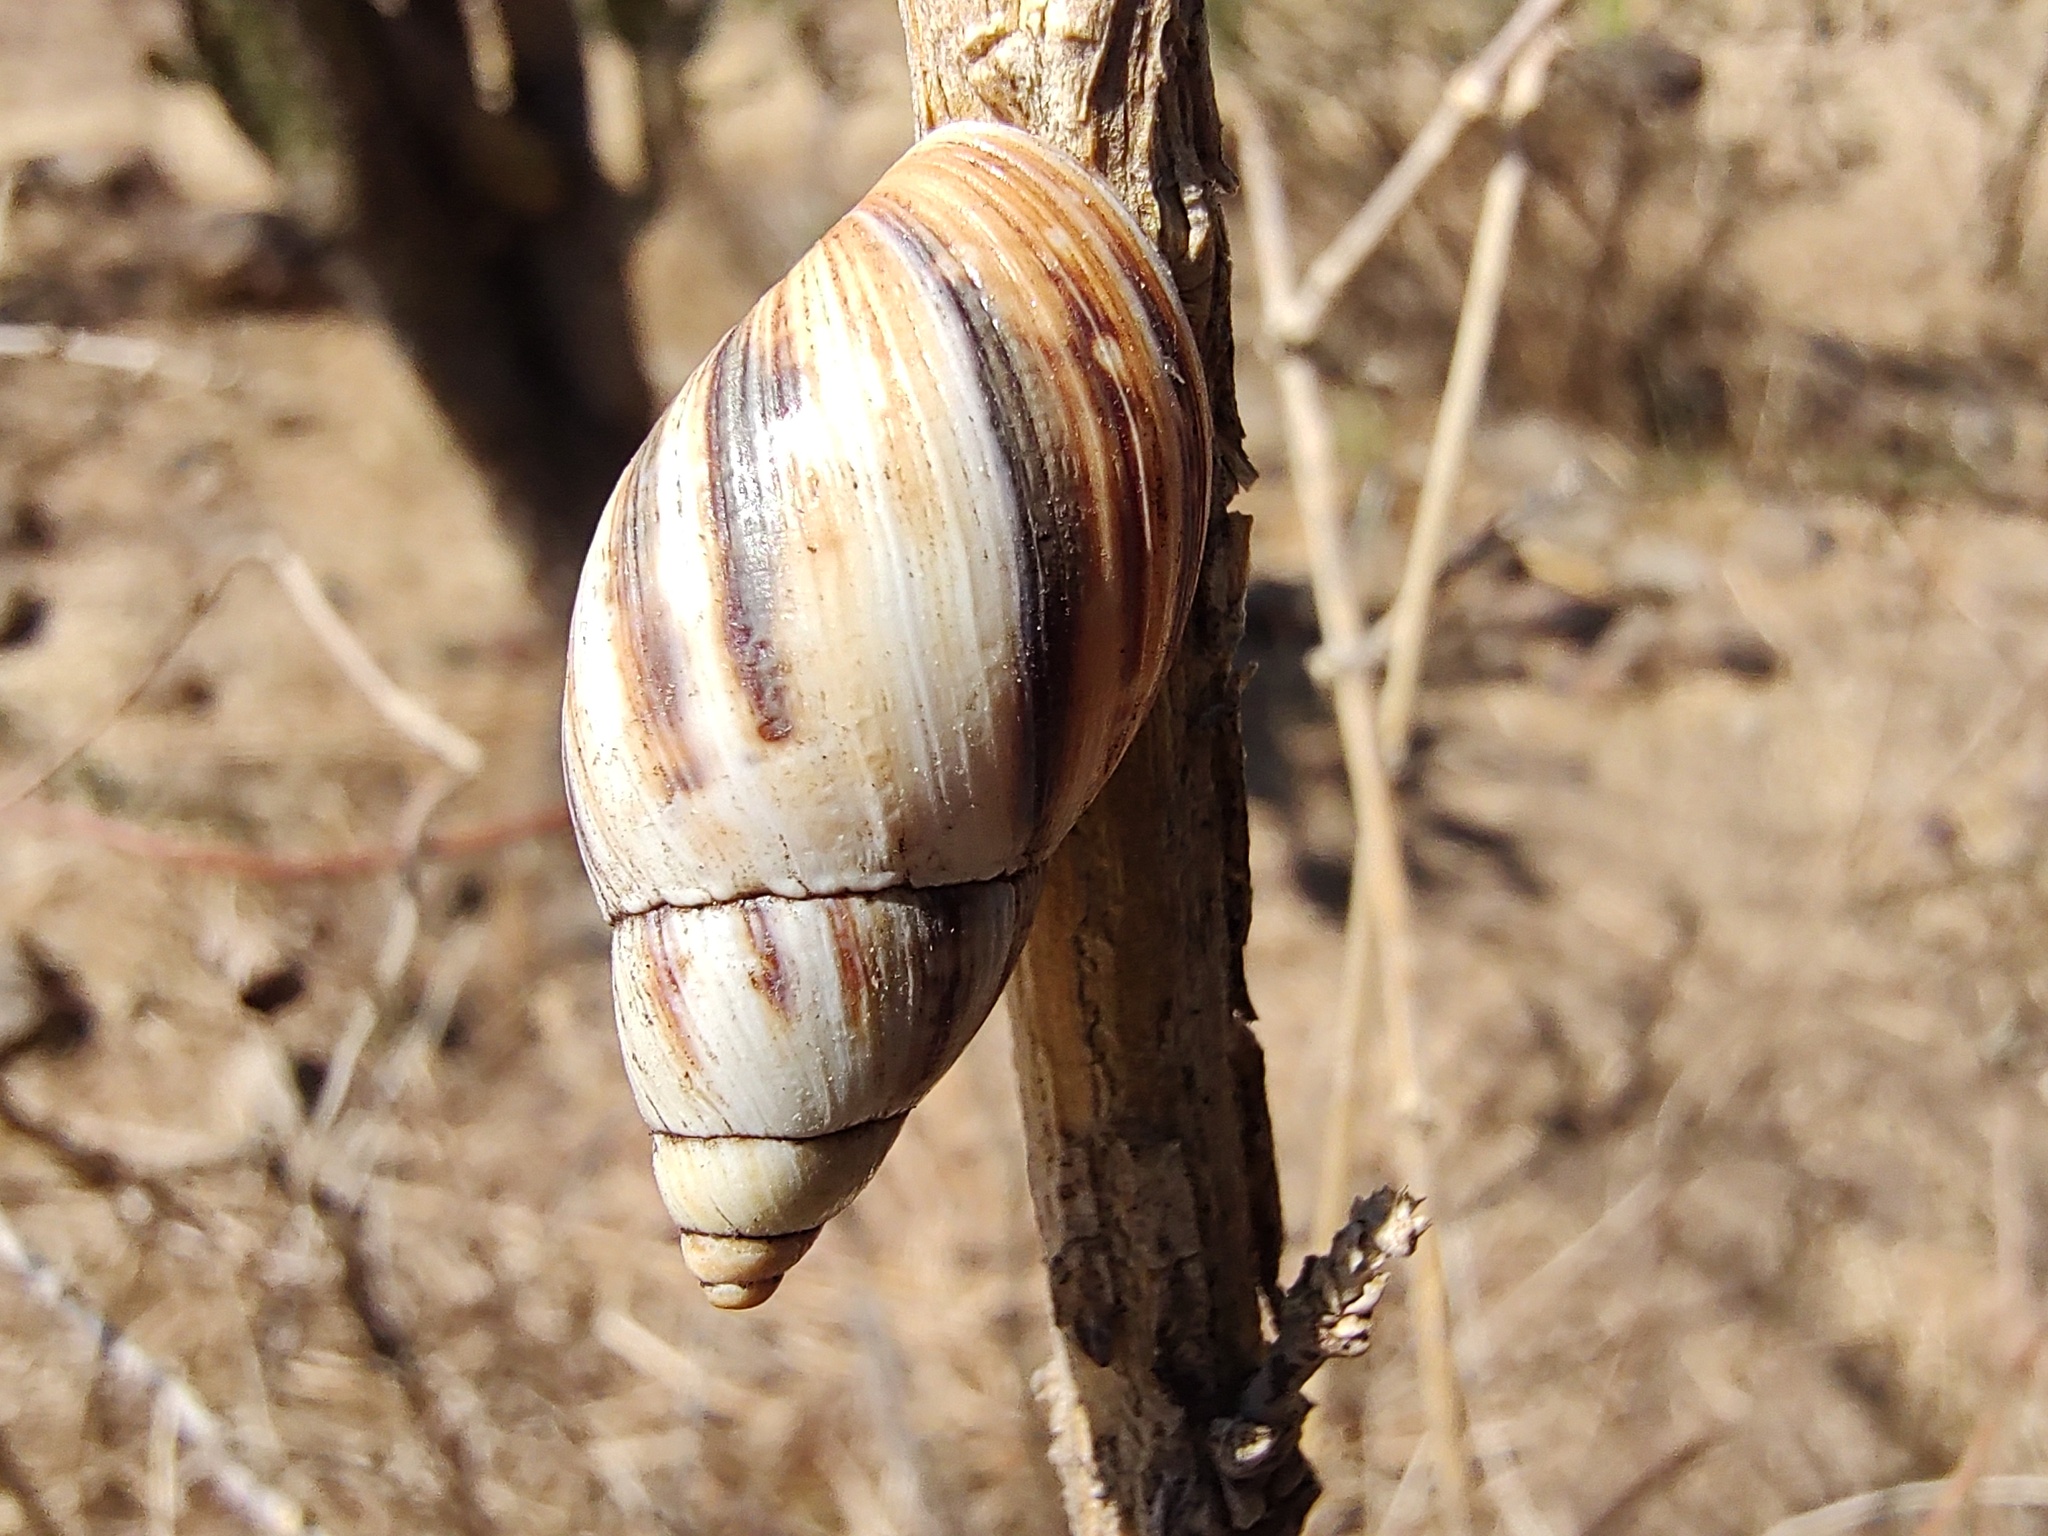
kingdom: Animalia
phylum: Mollusca
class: Gastropoda
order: Stylommatophora
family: Bulimulidae
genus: Drymaeus
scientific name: Drymaeus
